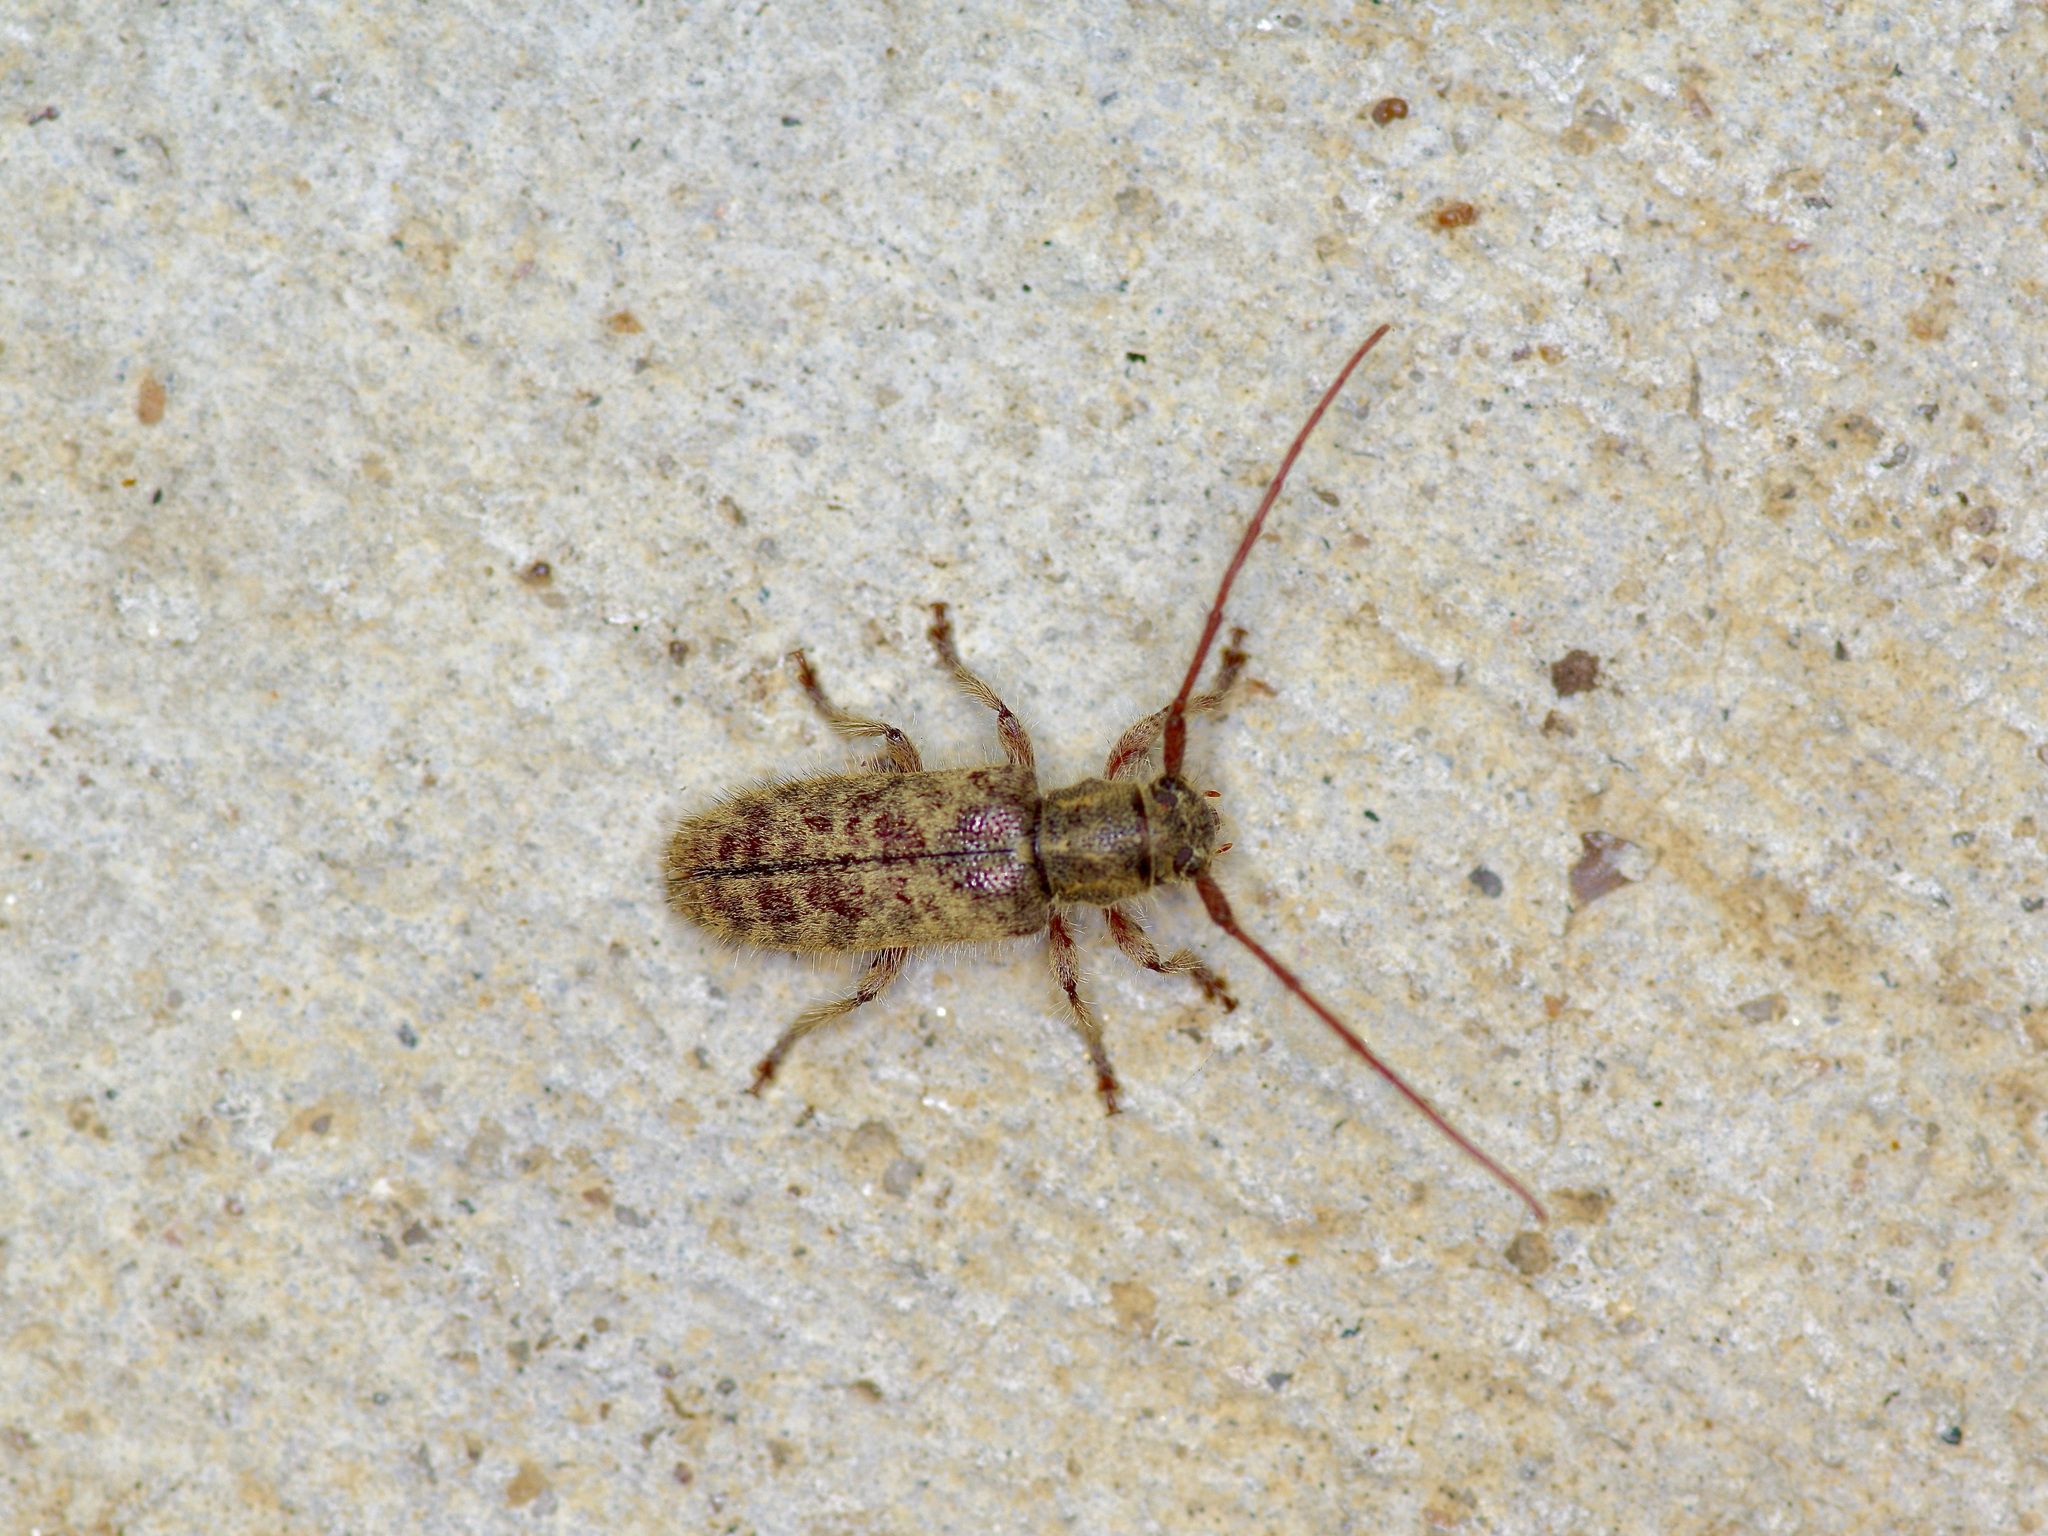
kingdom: Animalia
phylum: Arthropoda
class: Insecta
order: Coleoptera
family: Cerambycidae
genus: Eupogonius
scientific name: Eupogonius pauper
